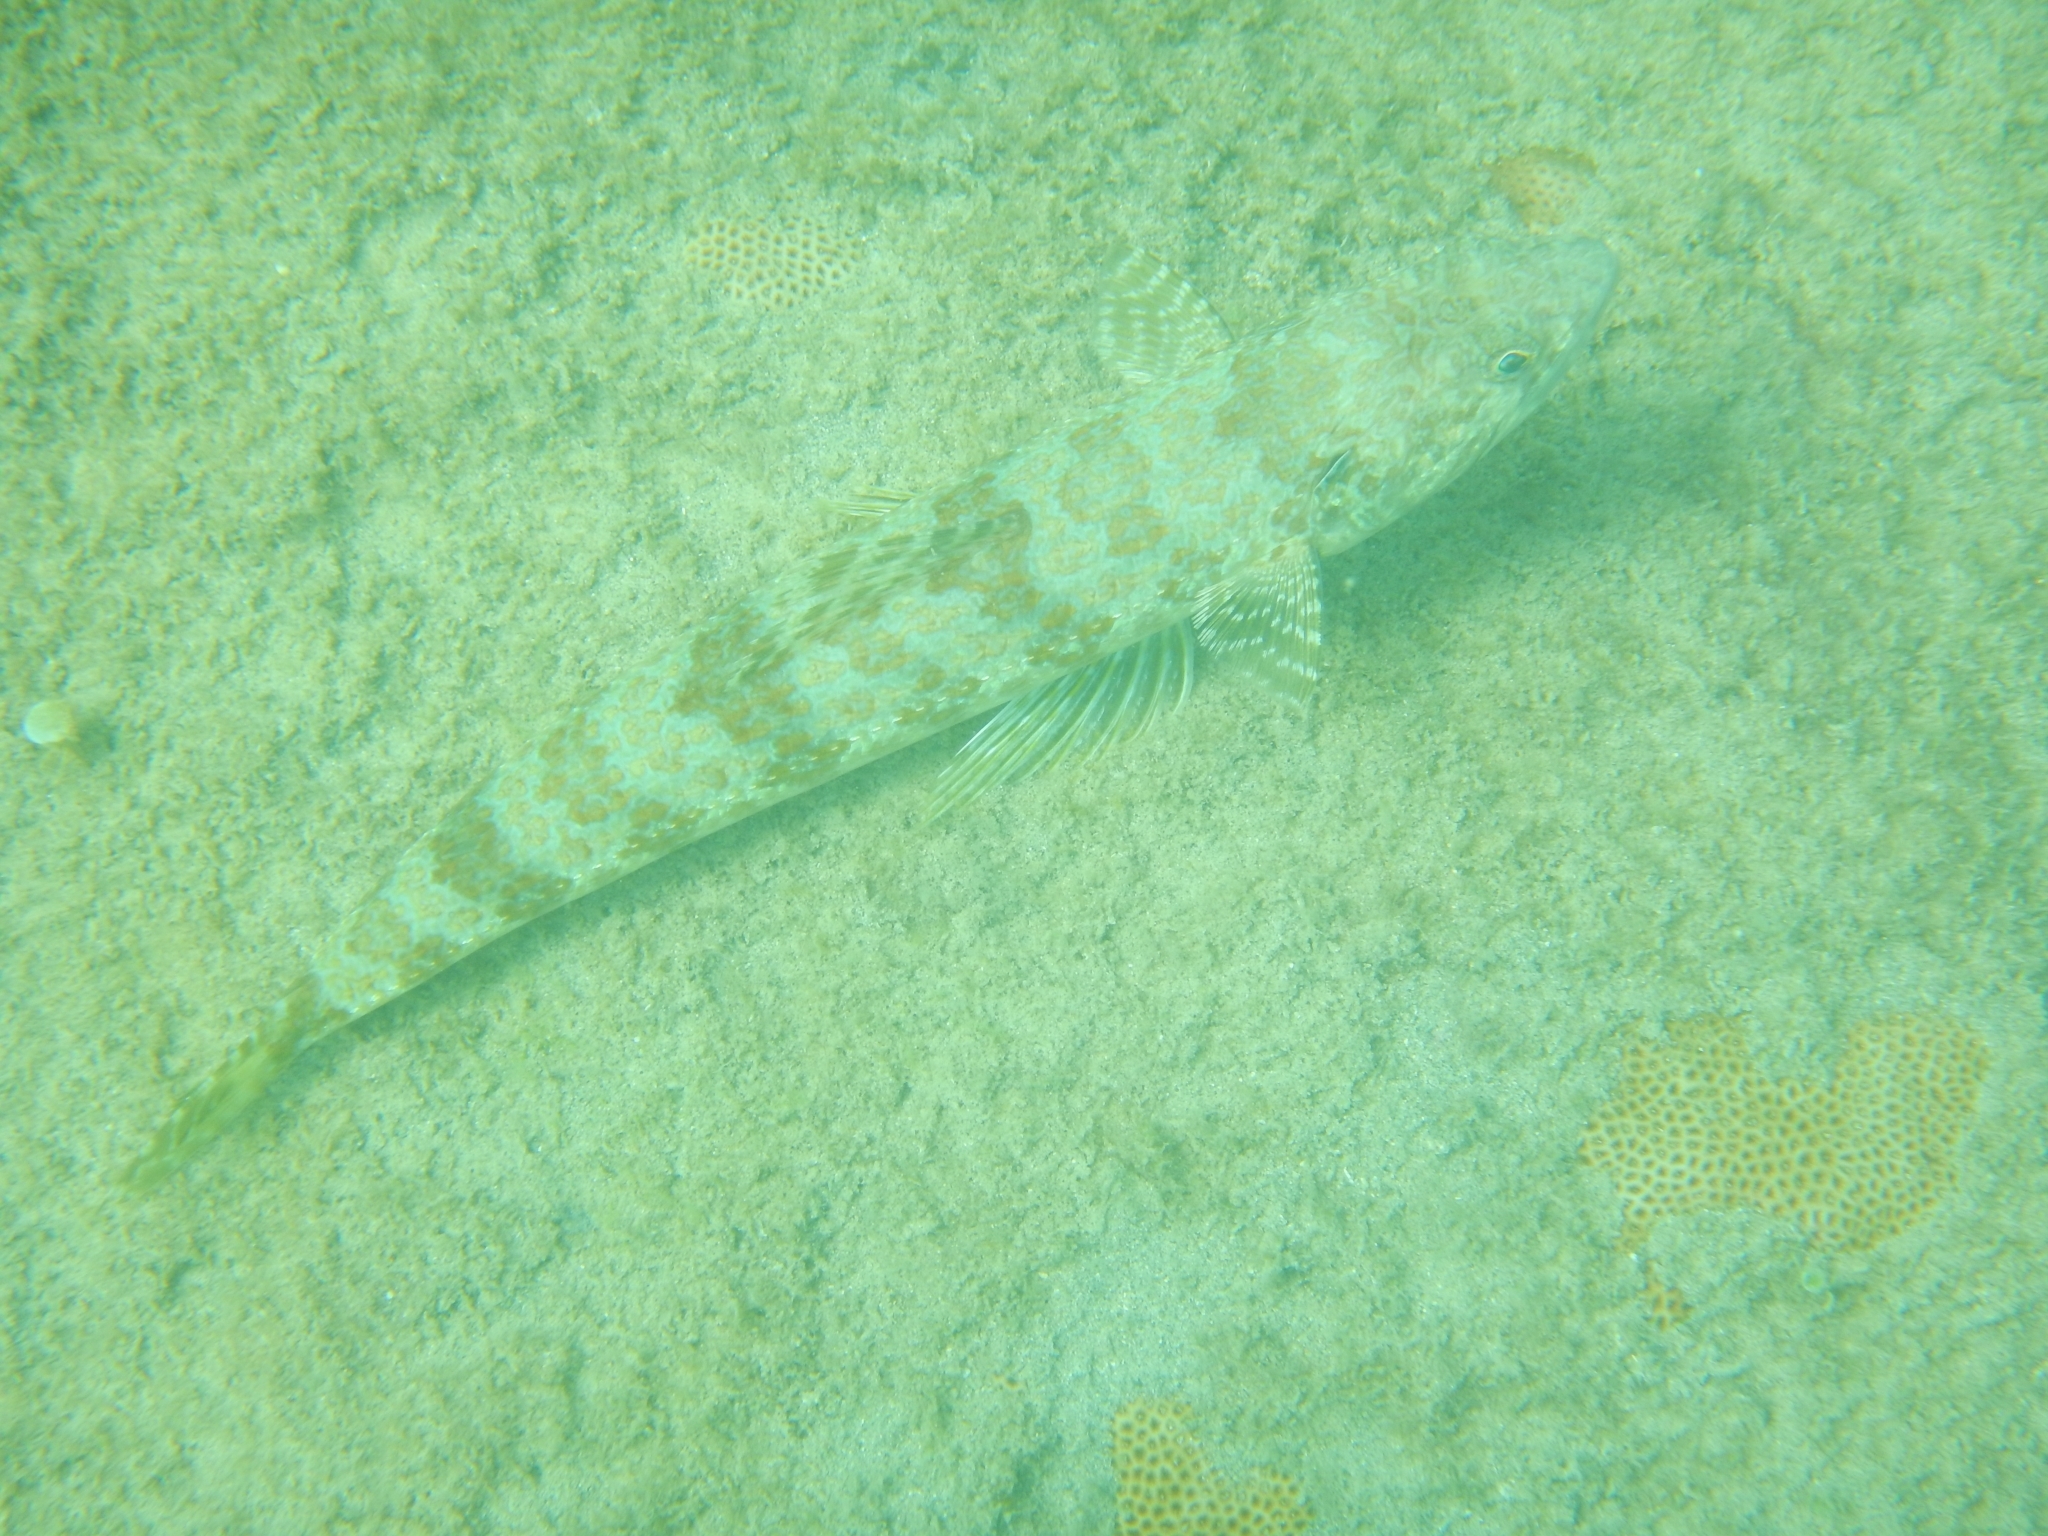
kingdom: Animalia
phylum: Chordata
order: Aulopiformes
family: Synodontidae
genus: Synodus
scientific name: Synodus intermedius
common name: Sand diver
